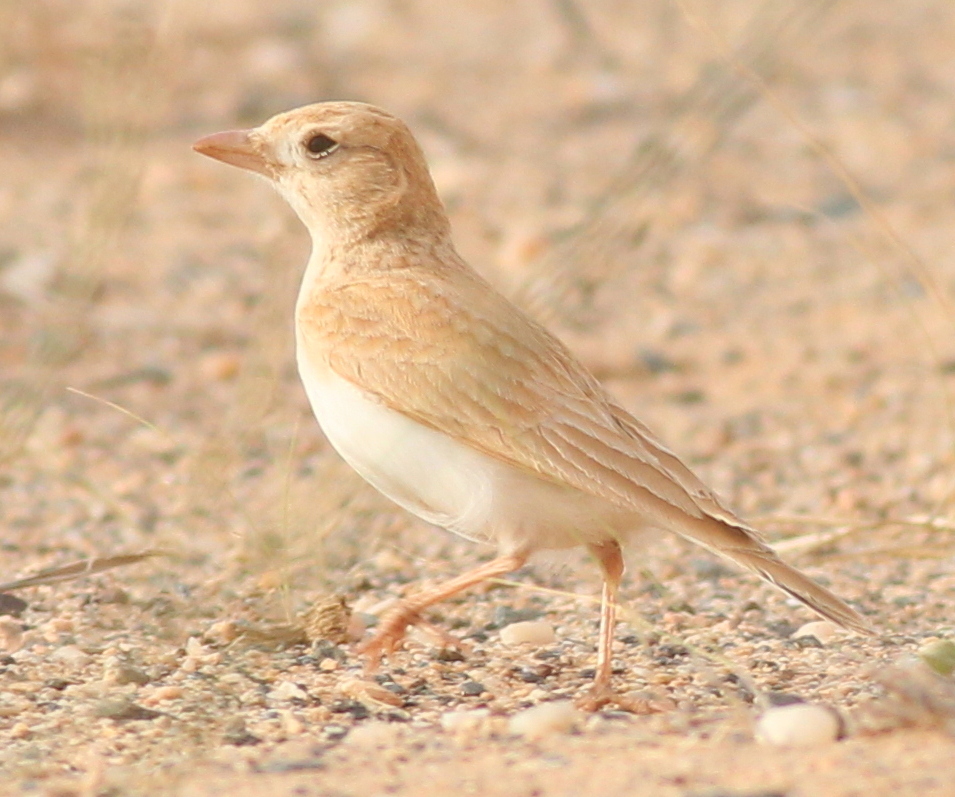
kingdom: Animalia
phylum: Chordata
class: Aves
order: Passeriformes
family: Alaudidae
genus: Eremalauda
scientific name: Eremalauda dunni
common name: Dunn's lark
